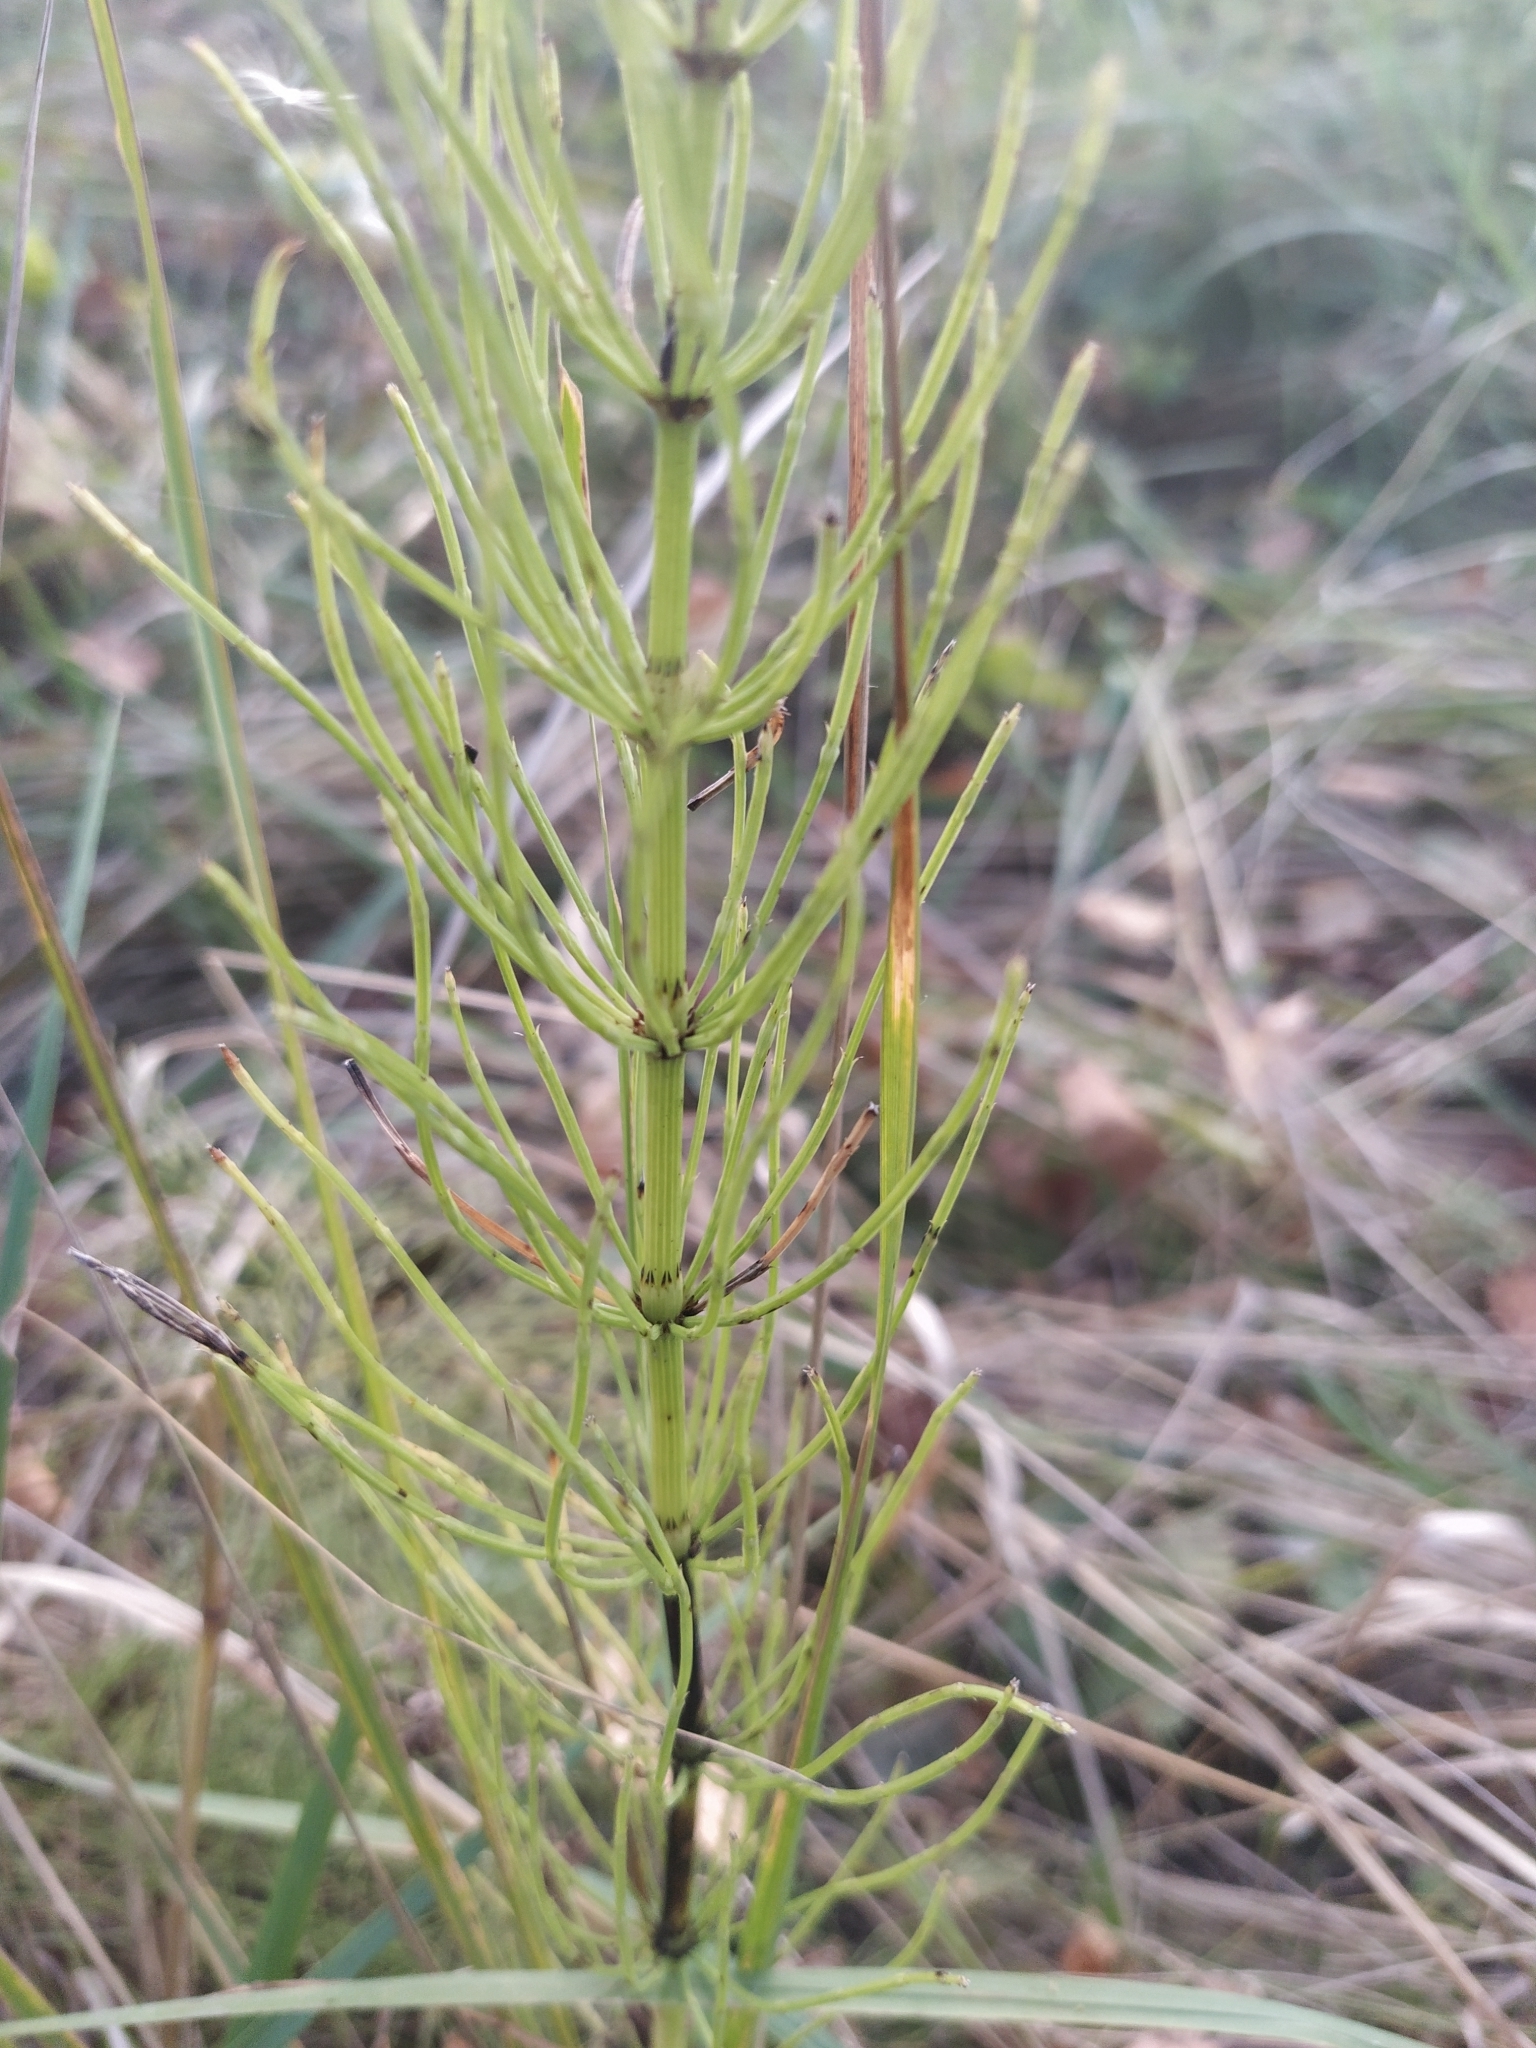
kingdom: Plantae
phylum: Tracheophyta
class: Polypodiopsida
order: Equisetales
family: Equisetaceae
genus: Equisetum
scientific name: Equisetum arvense
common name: Field horsetail
